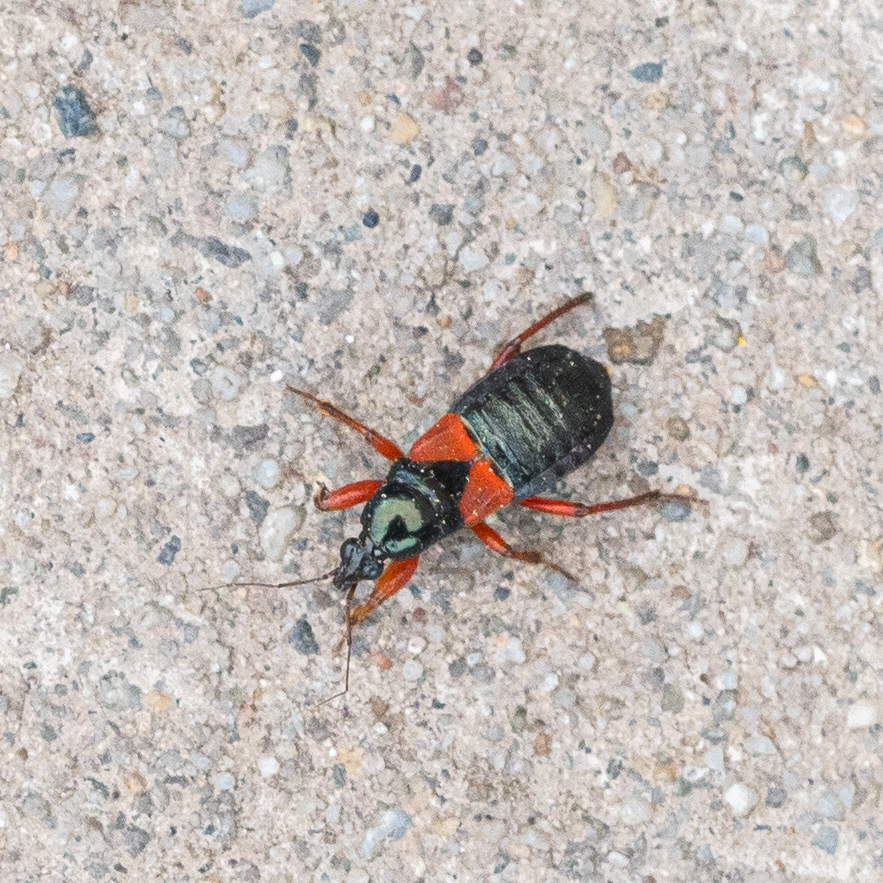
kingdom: Animalia
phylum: Arthropoda
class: Insecta
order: Hemiptera
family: Nabidae
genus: Prostemma
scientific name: Prostemma guttula
